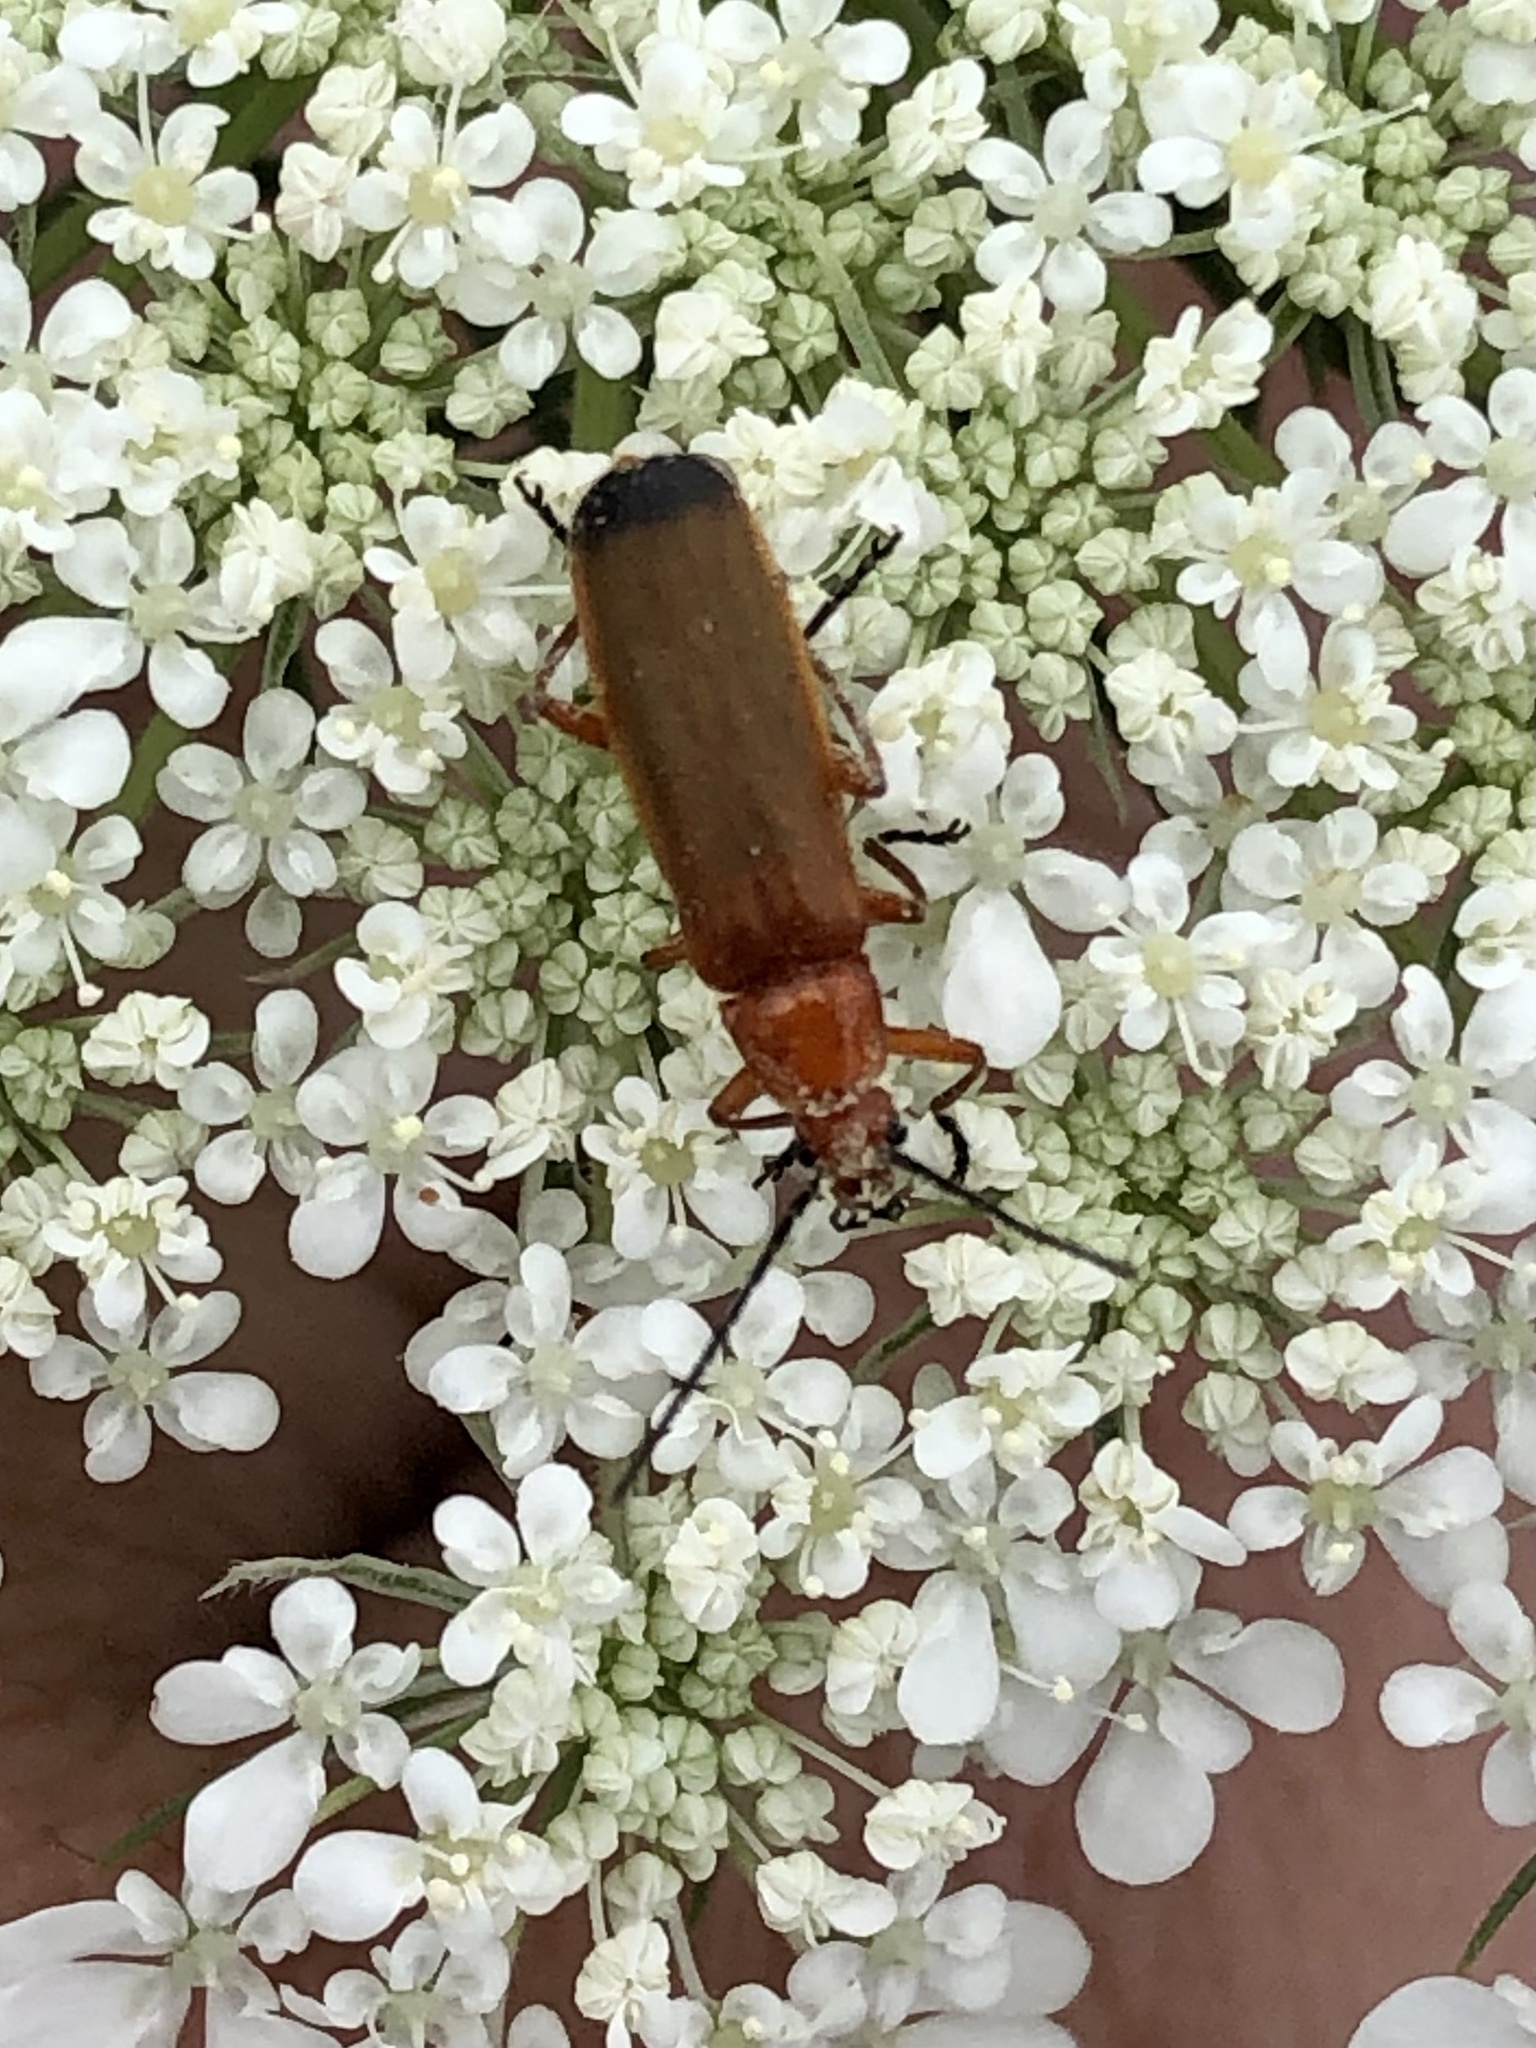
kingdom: Animalia
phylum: Arthropoda
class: Insecta
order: Coleoptera
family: Cantharidae
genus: Rhagonycha
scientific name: Rhagonycha fulva
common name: Common red soldier beetle
